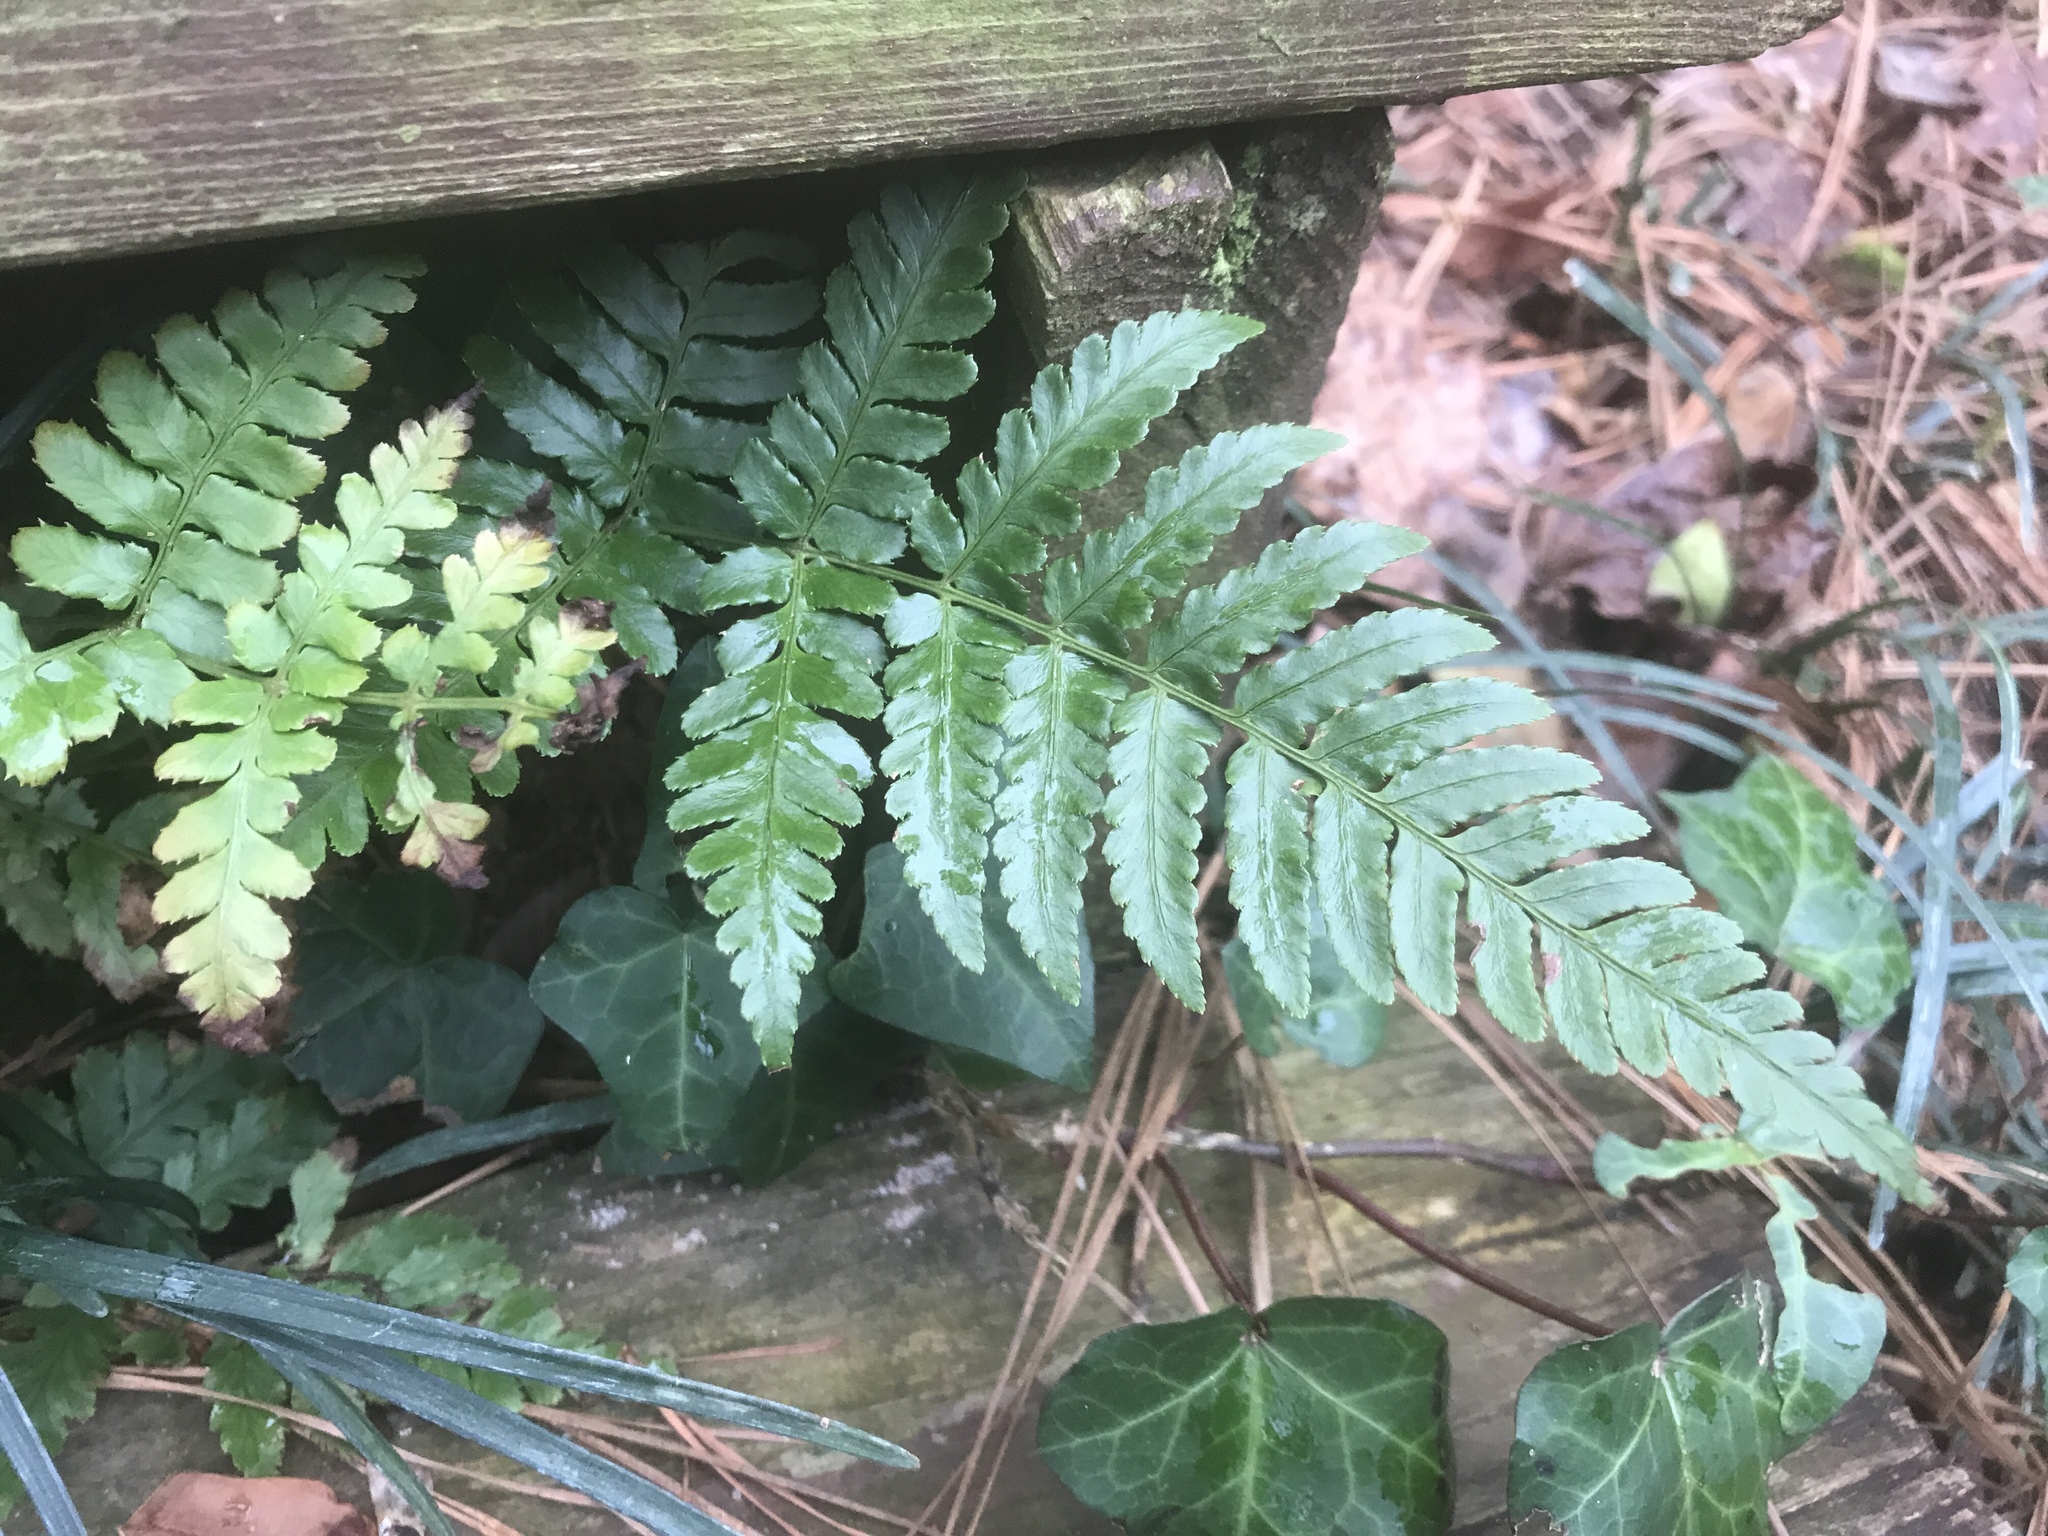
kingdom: Plantae
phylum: Tracheophyta
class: Polypodiopsida
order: Polypodiales
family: Dryopteridaceae
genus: Dryopteris
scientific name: Dryopteris erythrosora
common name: Autumn fern
